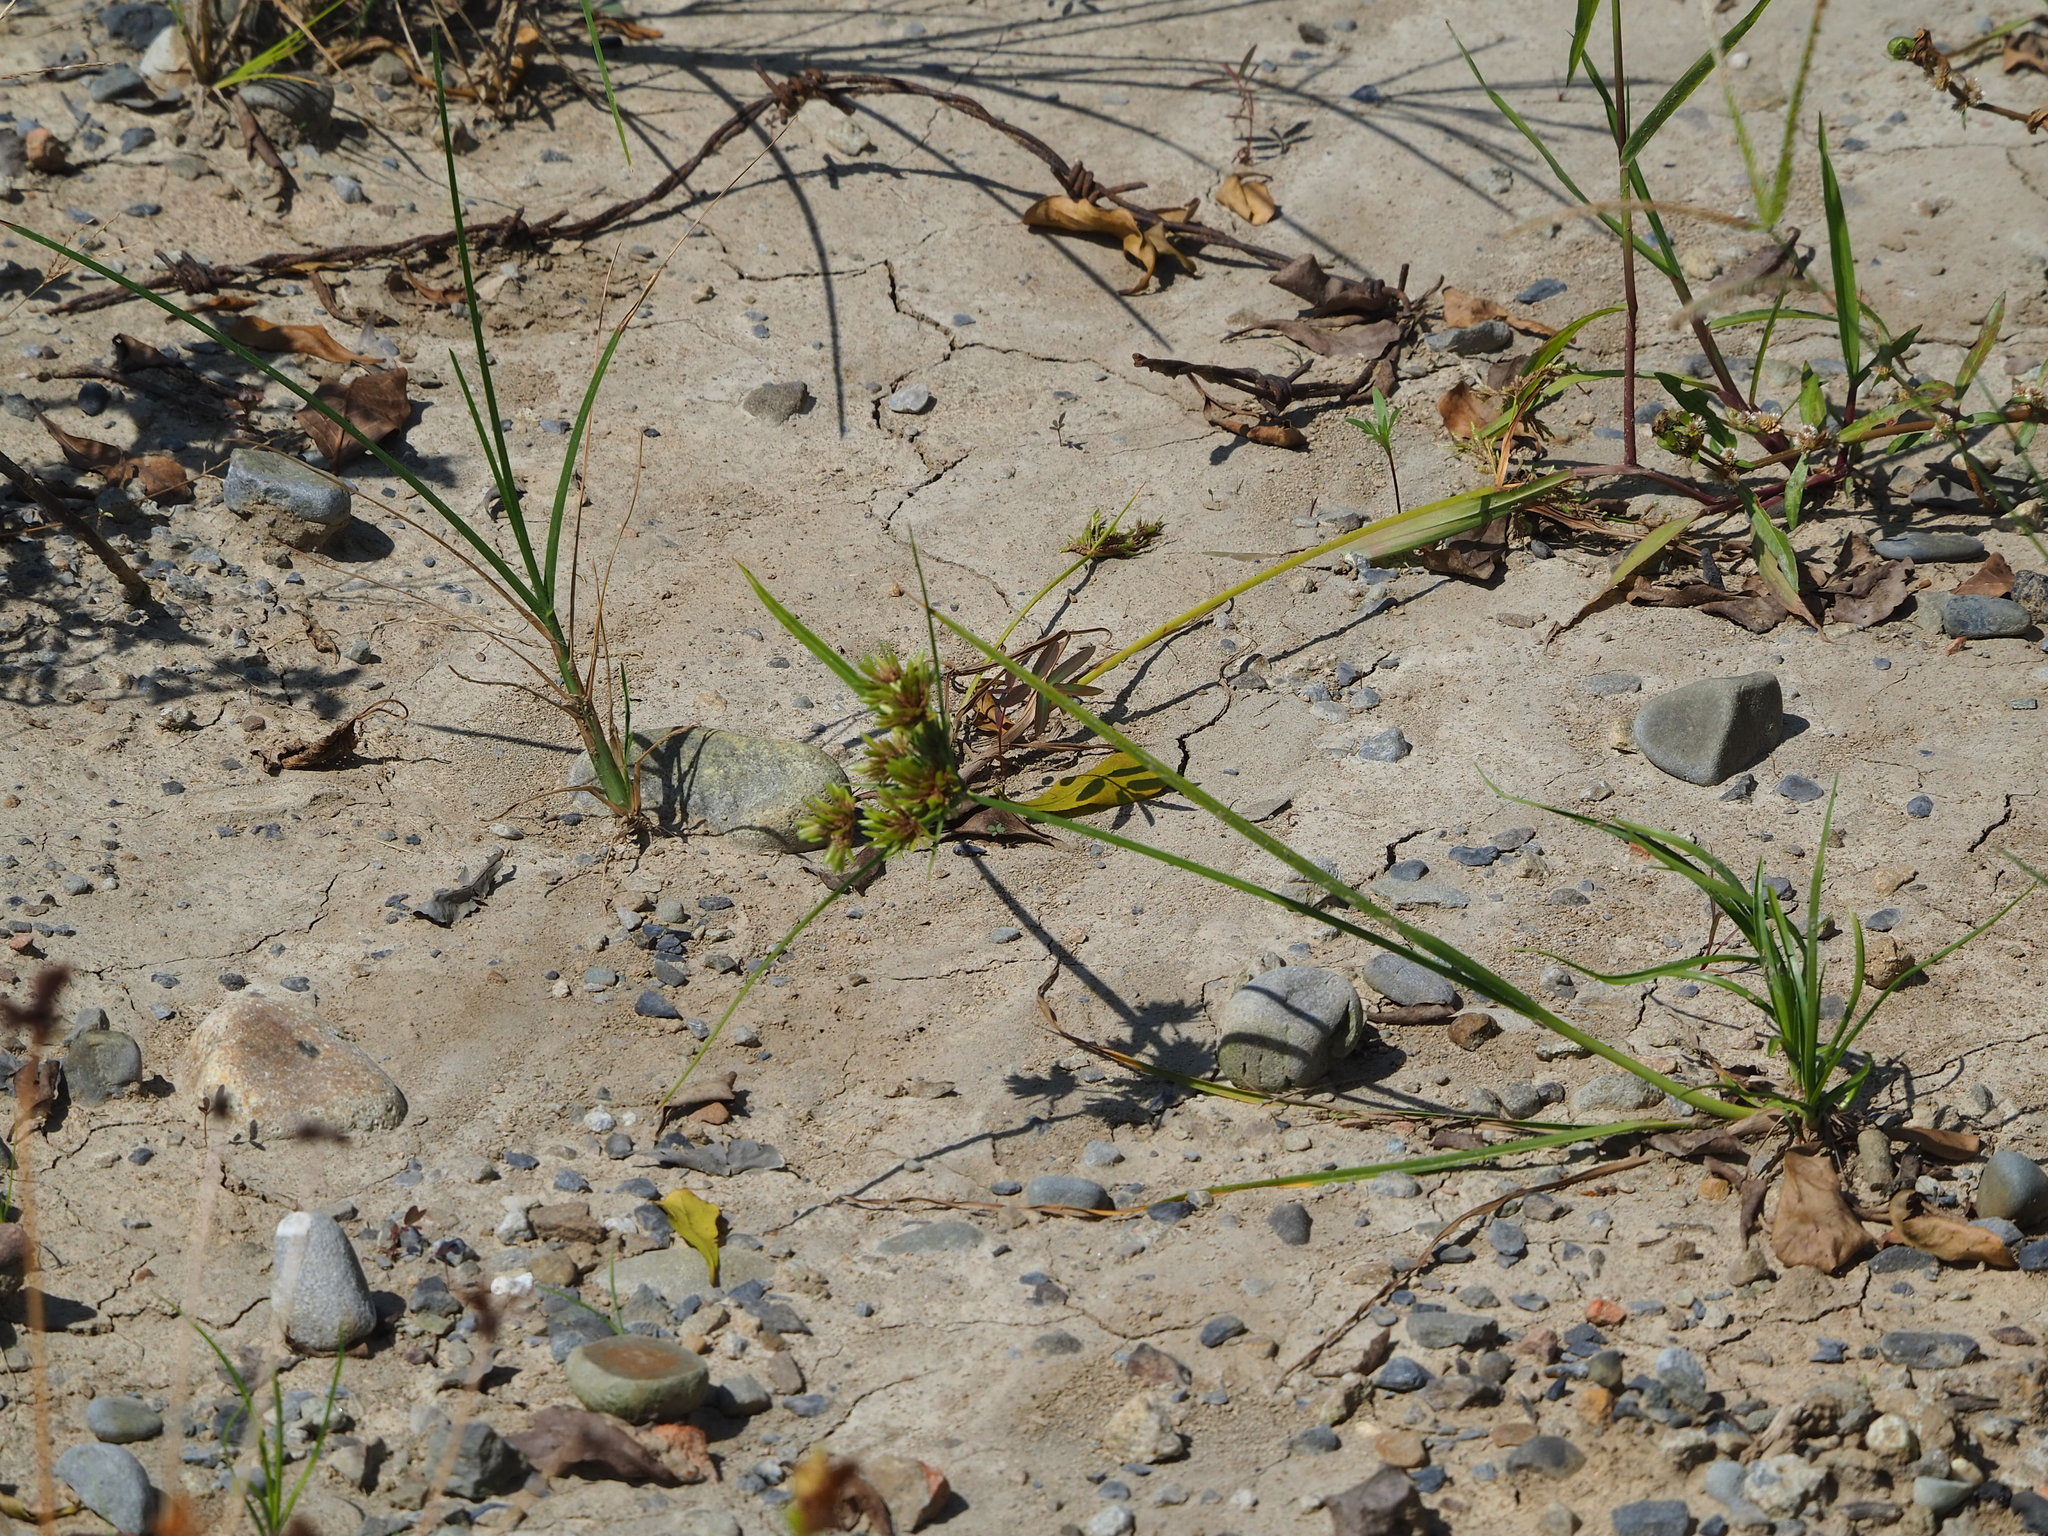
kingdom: Plantae
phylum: Tracheophyta
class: Liliopsida
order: Poales
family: Cyperaceae
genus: Cyperus
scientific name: Cyperus eragrostis
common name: Tall flatsedge
